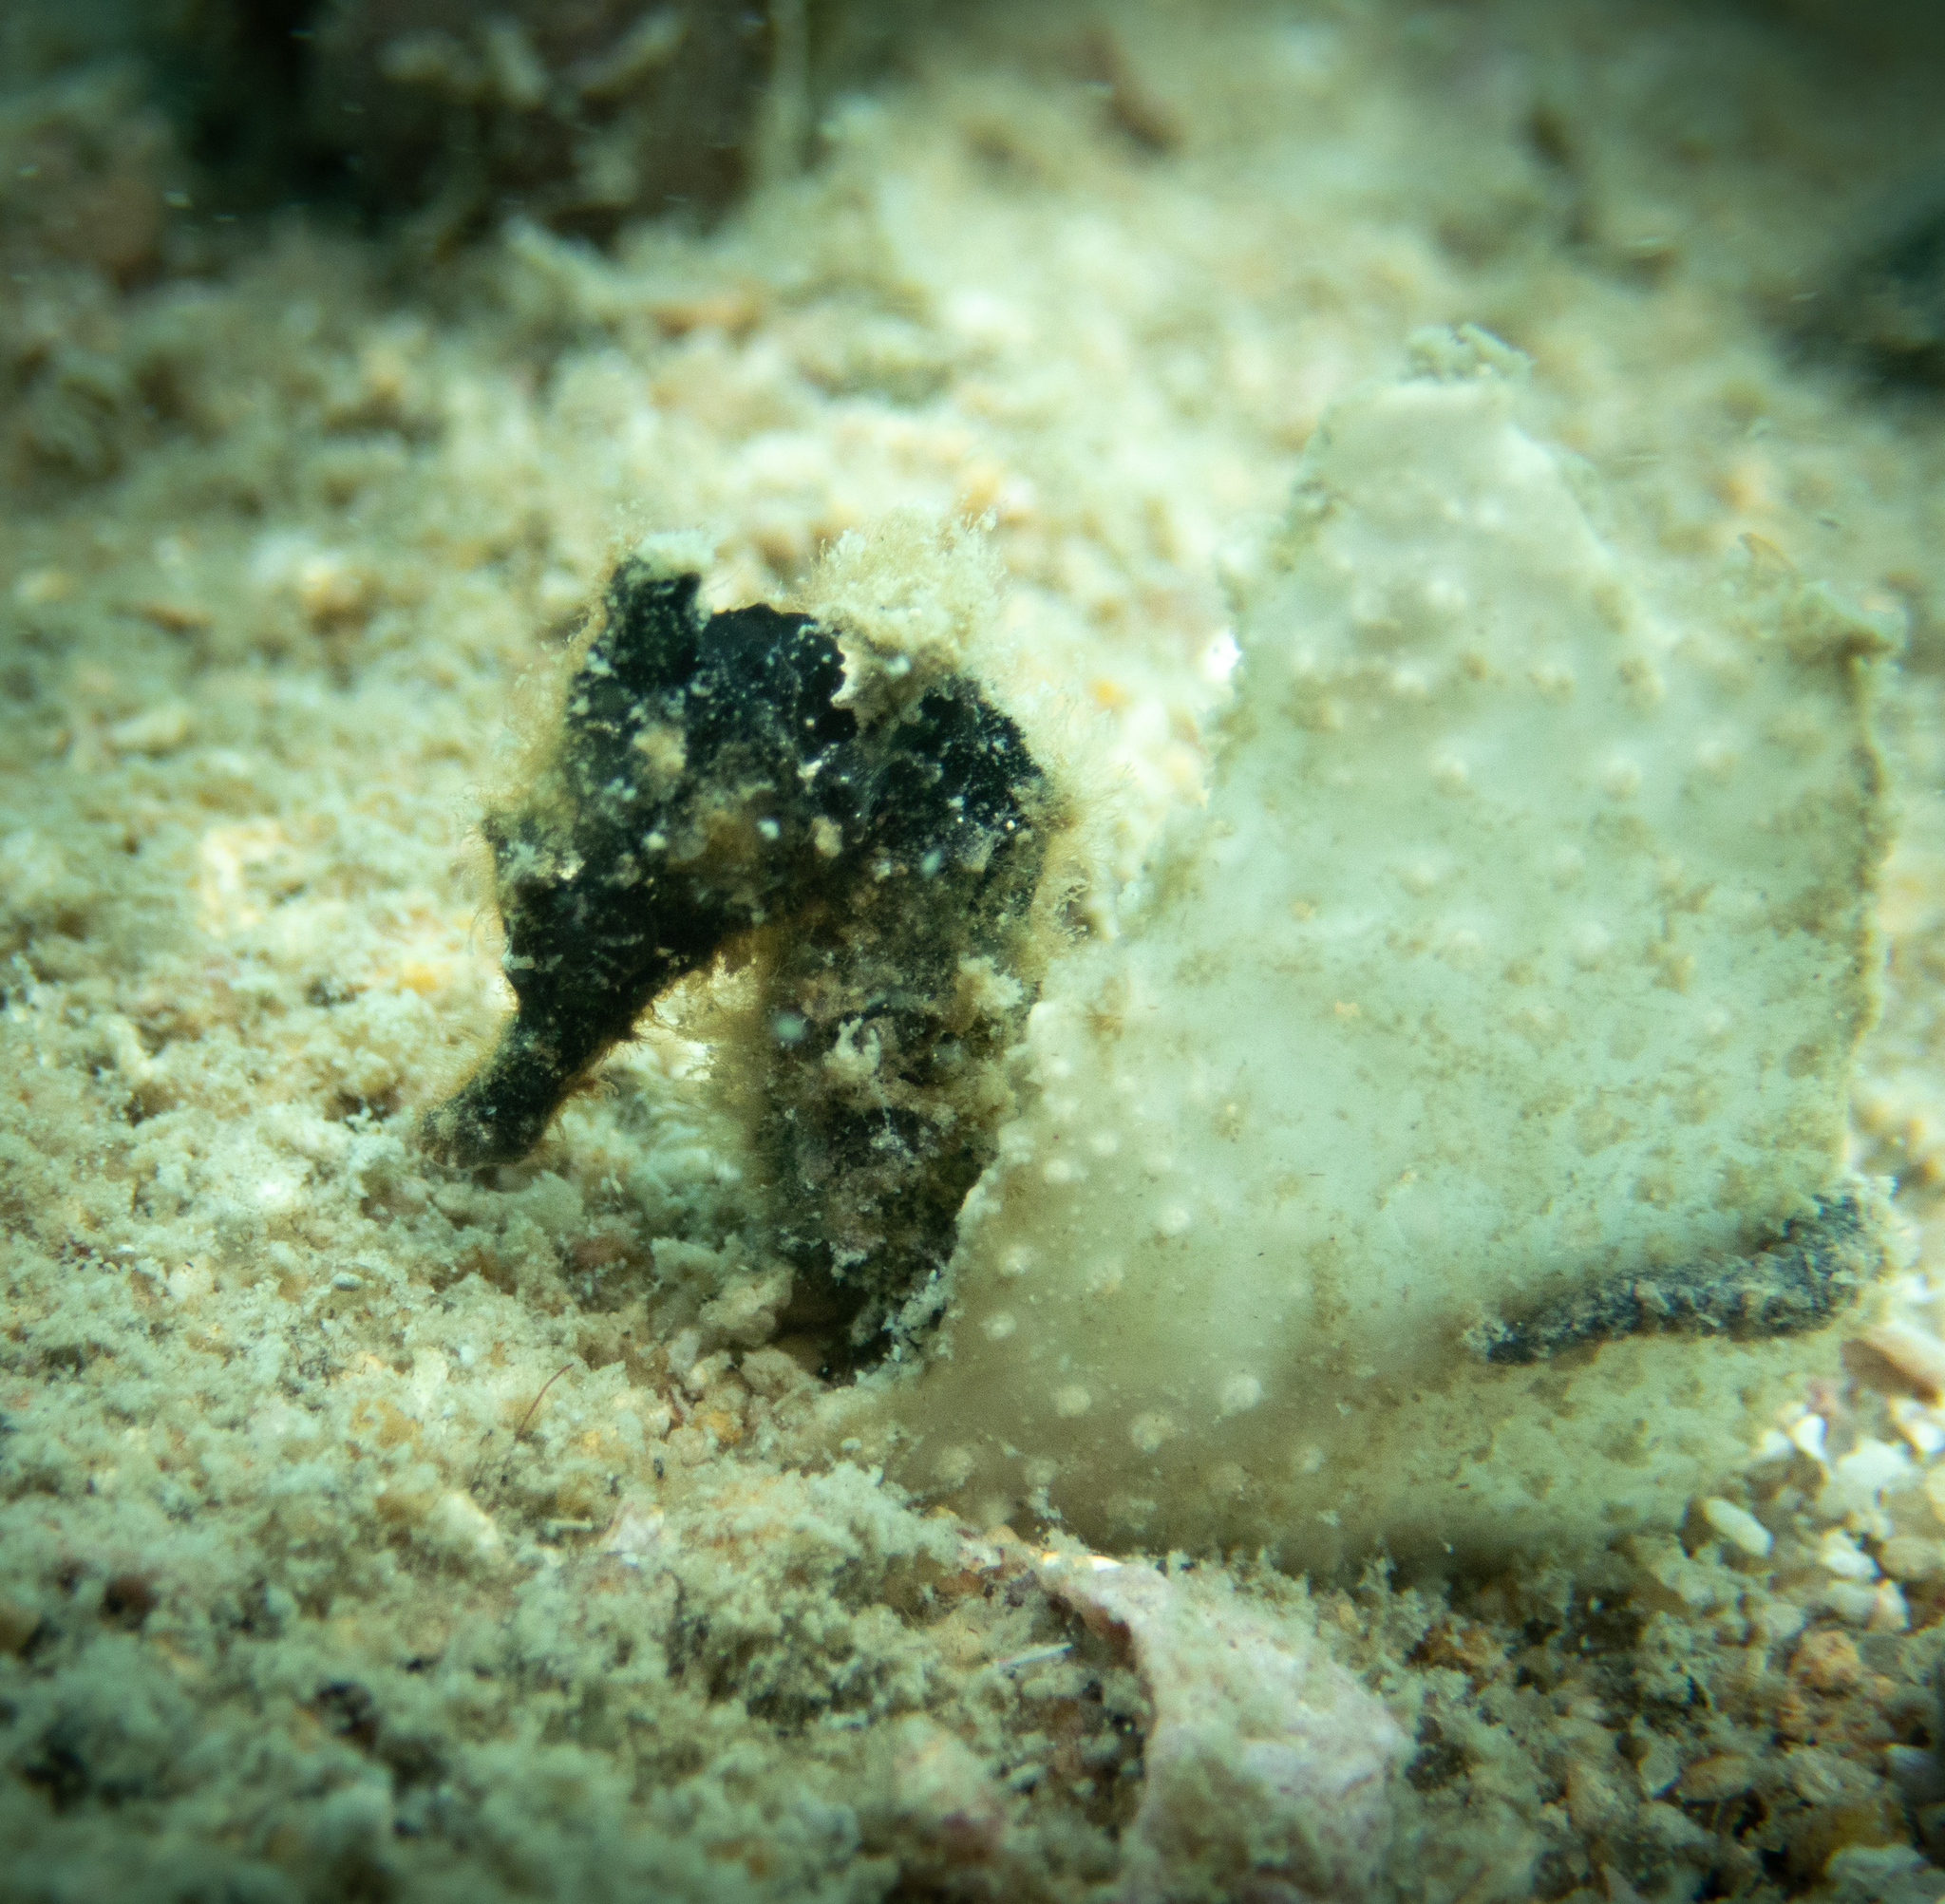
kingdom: Animalia
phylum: Chordata
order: Syngnathiformes
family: Syngnathidae
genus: Hippocampus
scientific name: Hippocampus kuda
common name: Spotted seahorse
